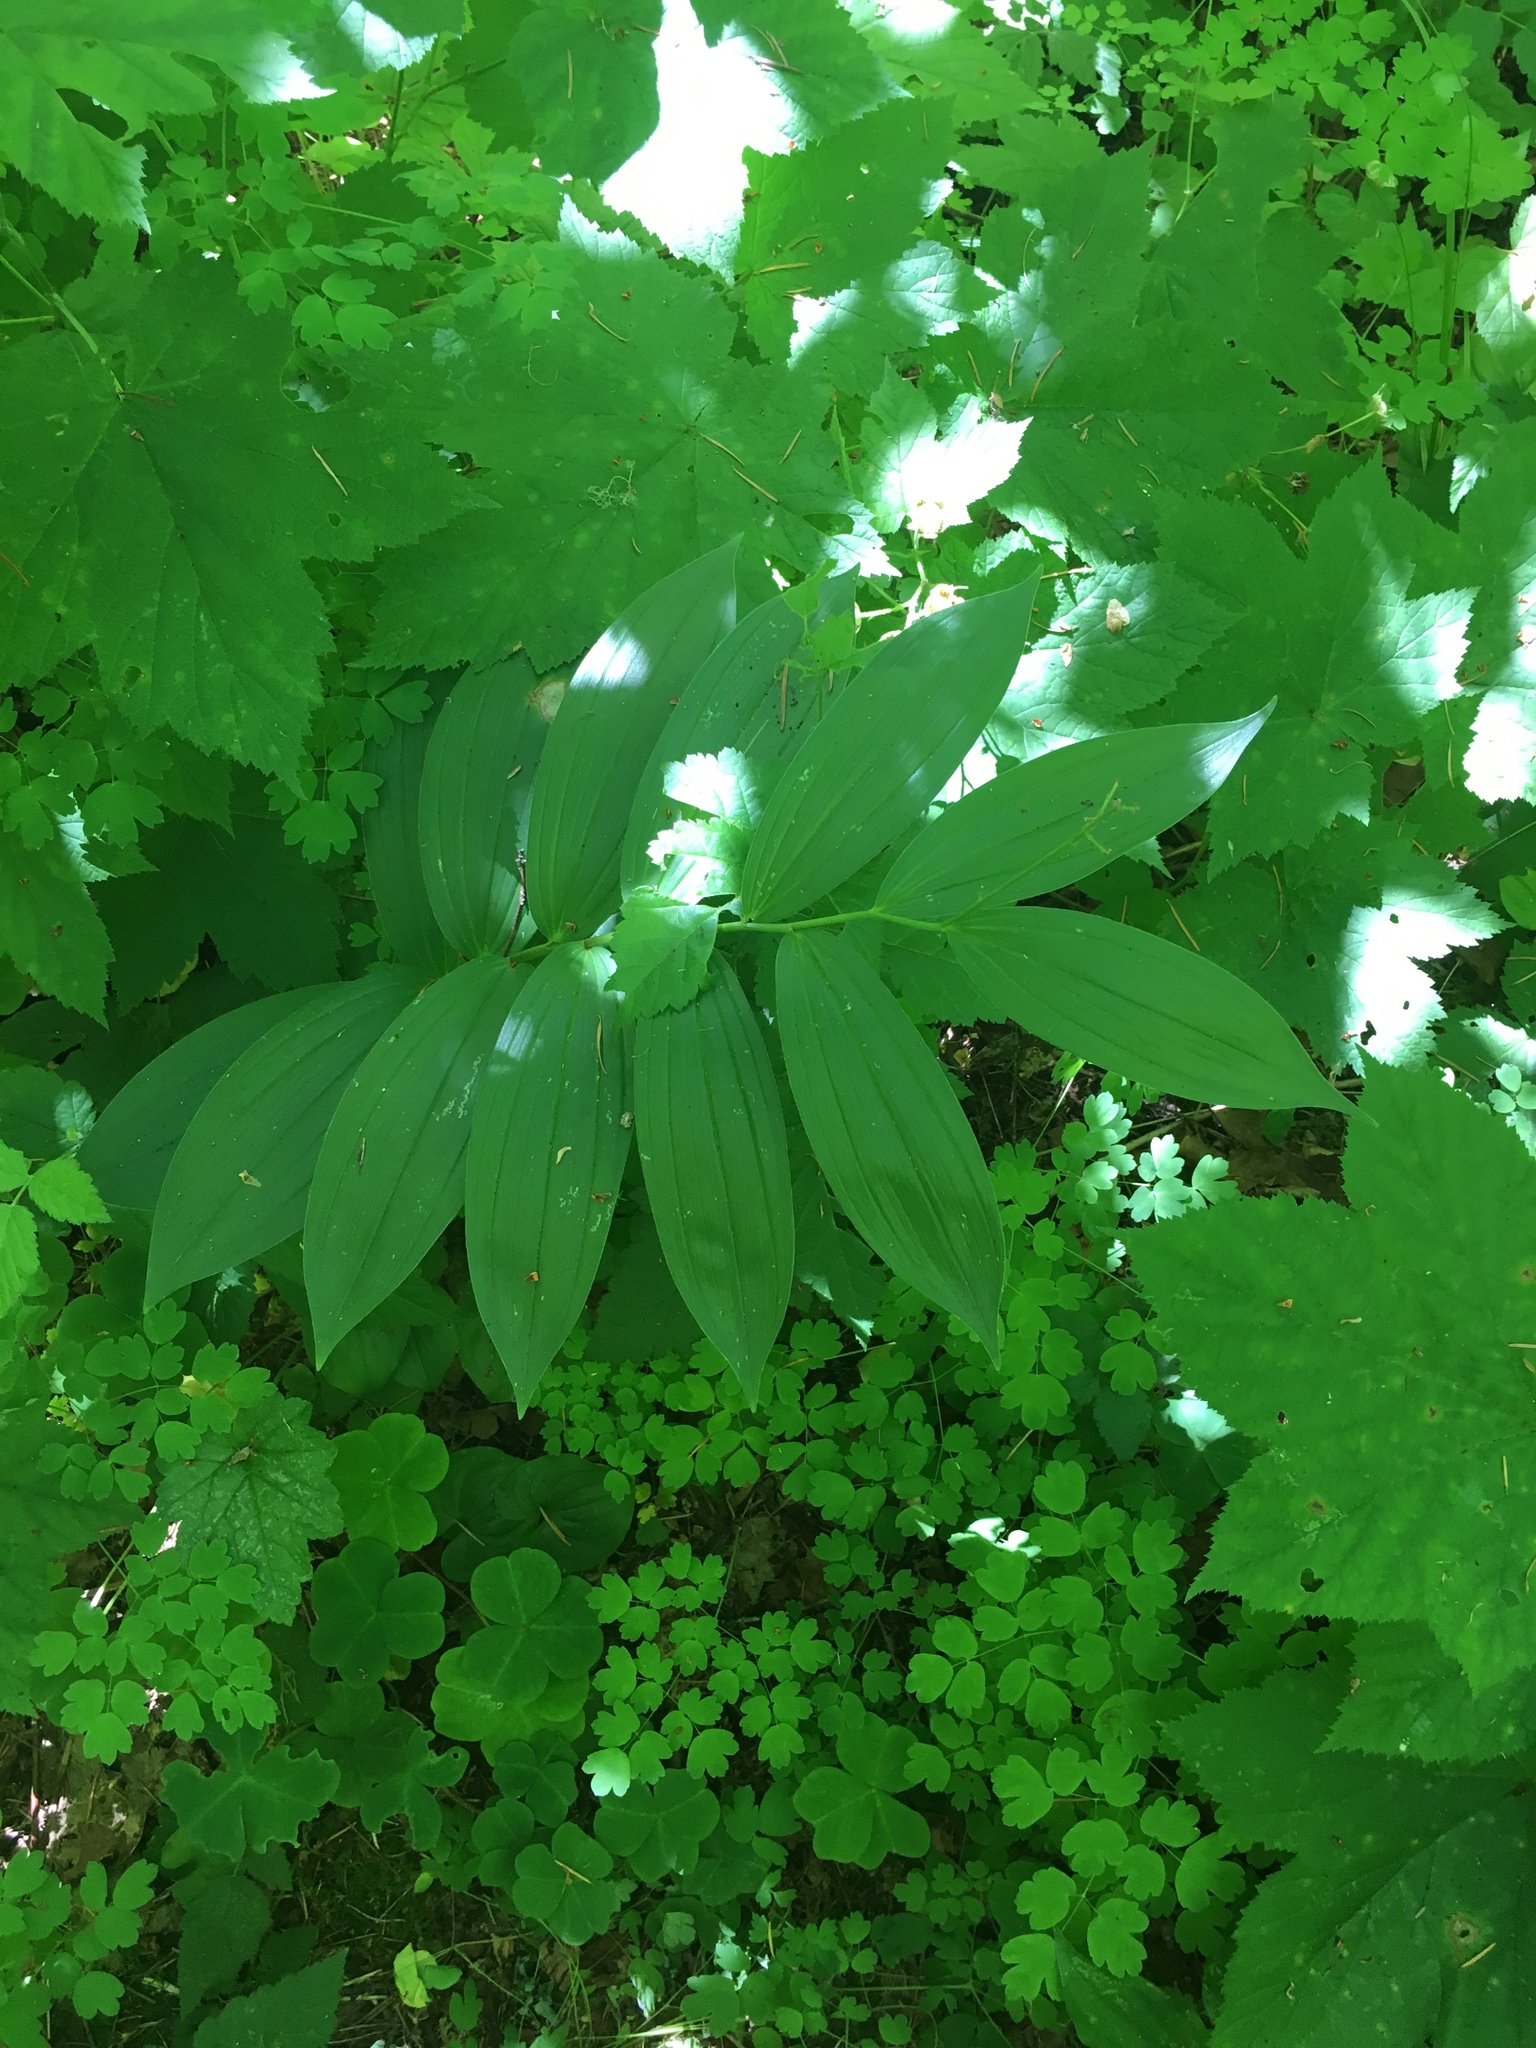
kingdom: Plantae
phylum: Tracheophyta
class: Liliopsida
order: Asparagales
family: Asparagaceae
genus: Maianthemum
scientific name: Maianthemum racemosum
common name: False spikenard
